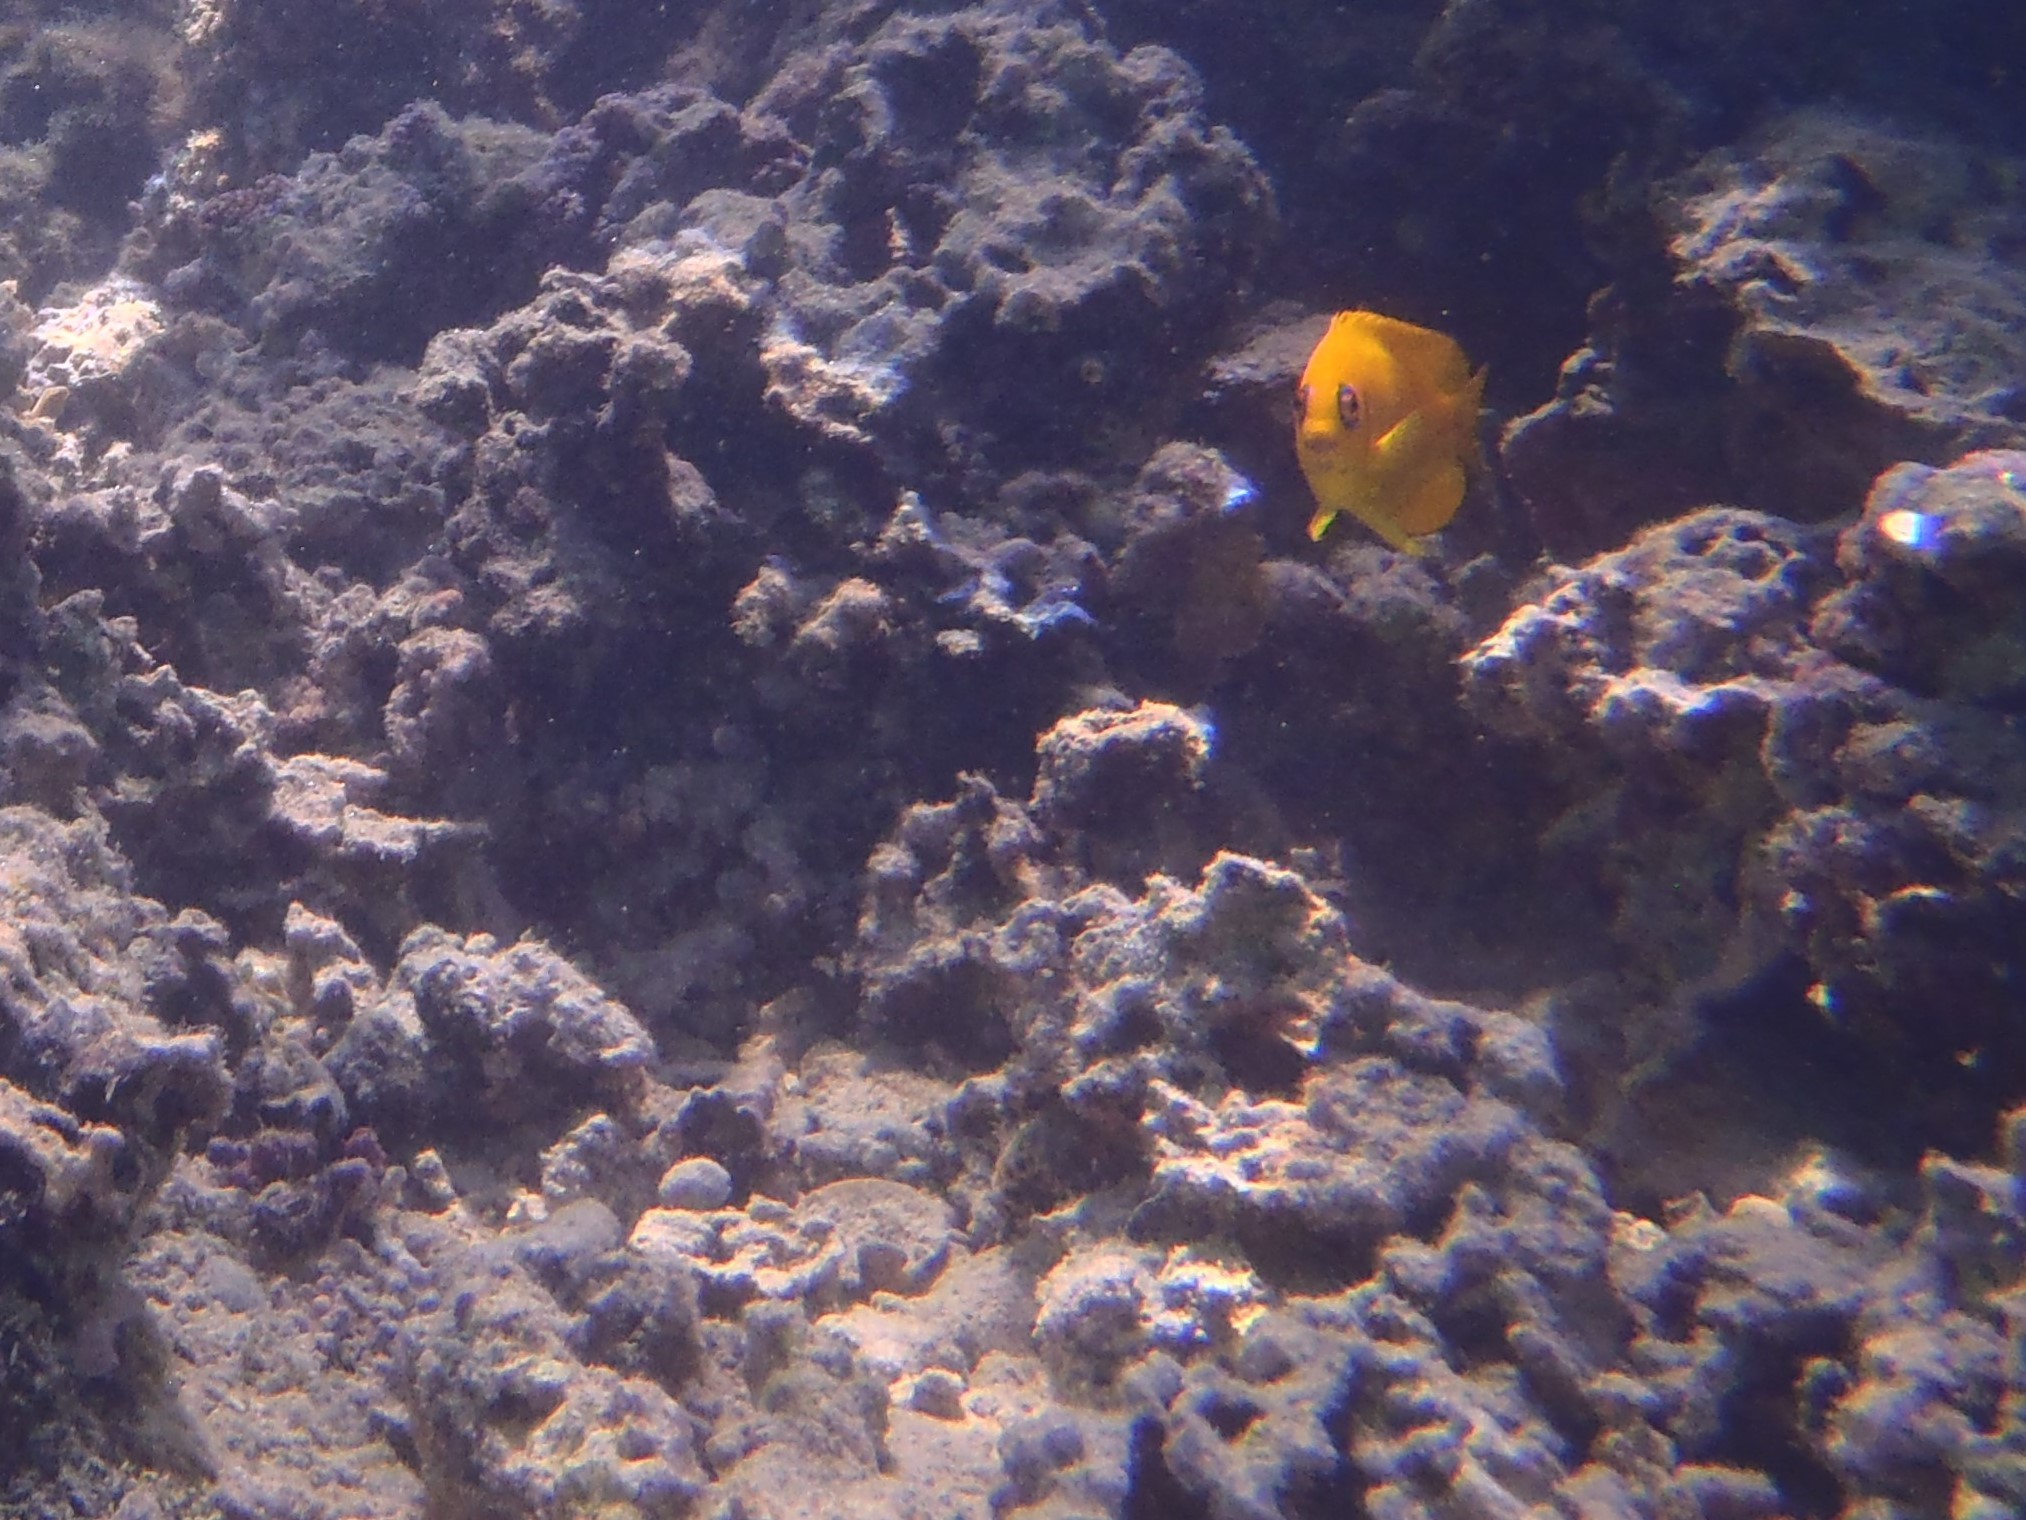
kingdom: Animalia
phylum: Chordata
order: Perciformes
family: Pomacanthidae
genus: Centropyge
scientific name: Centropyge flavissima
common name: Lemonpeel angelfish
